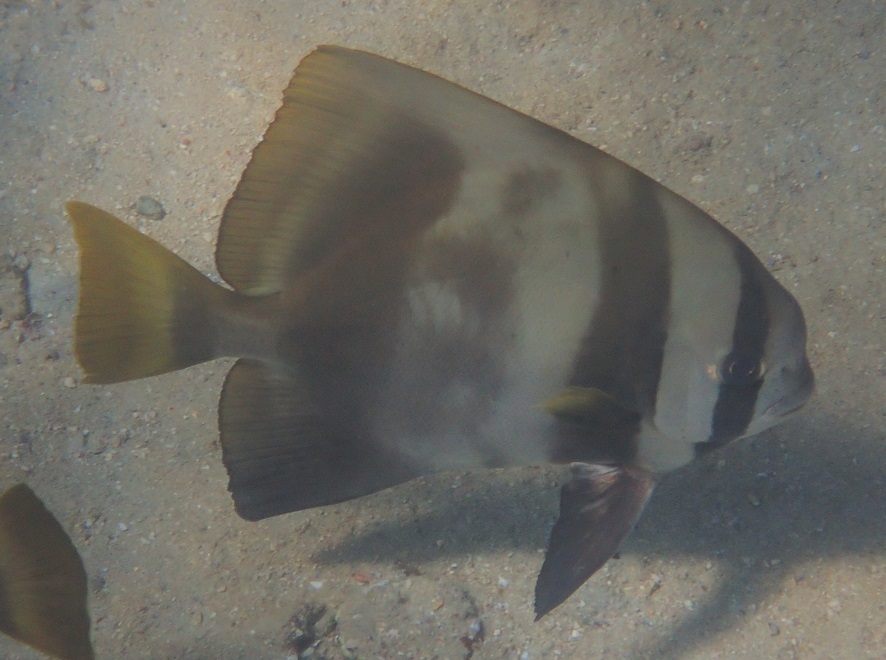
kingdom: Animalia
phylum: Chordata
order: Perciformes
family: Ephippidae
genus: Platax
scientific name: Platax batavianus
